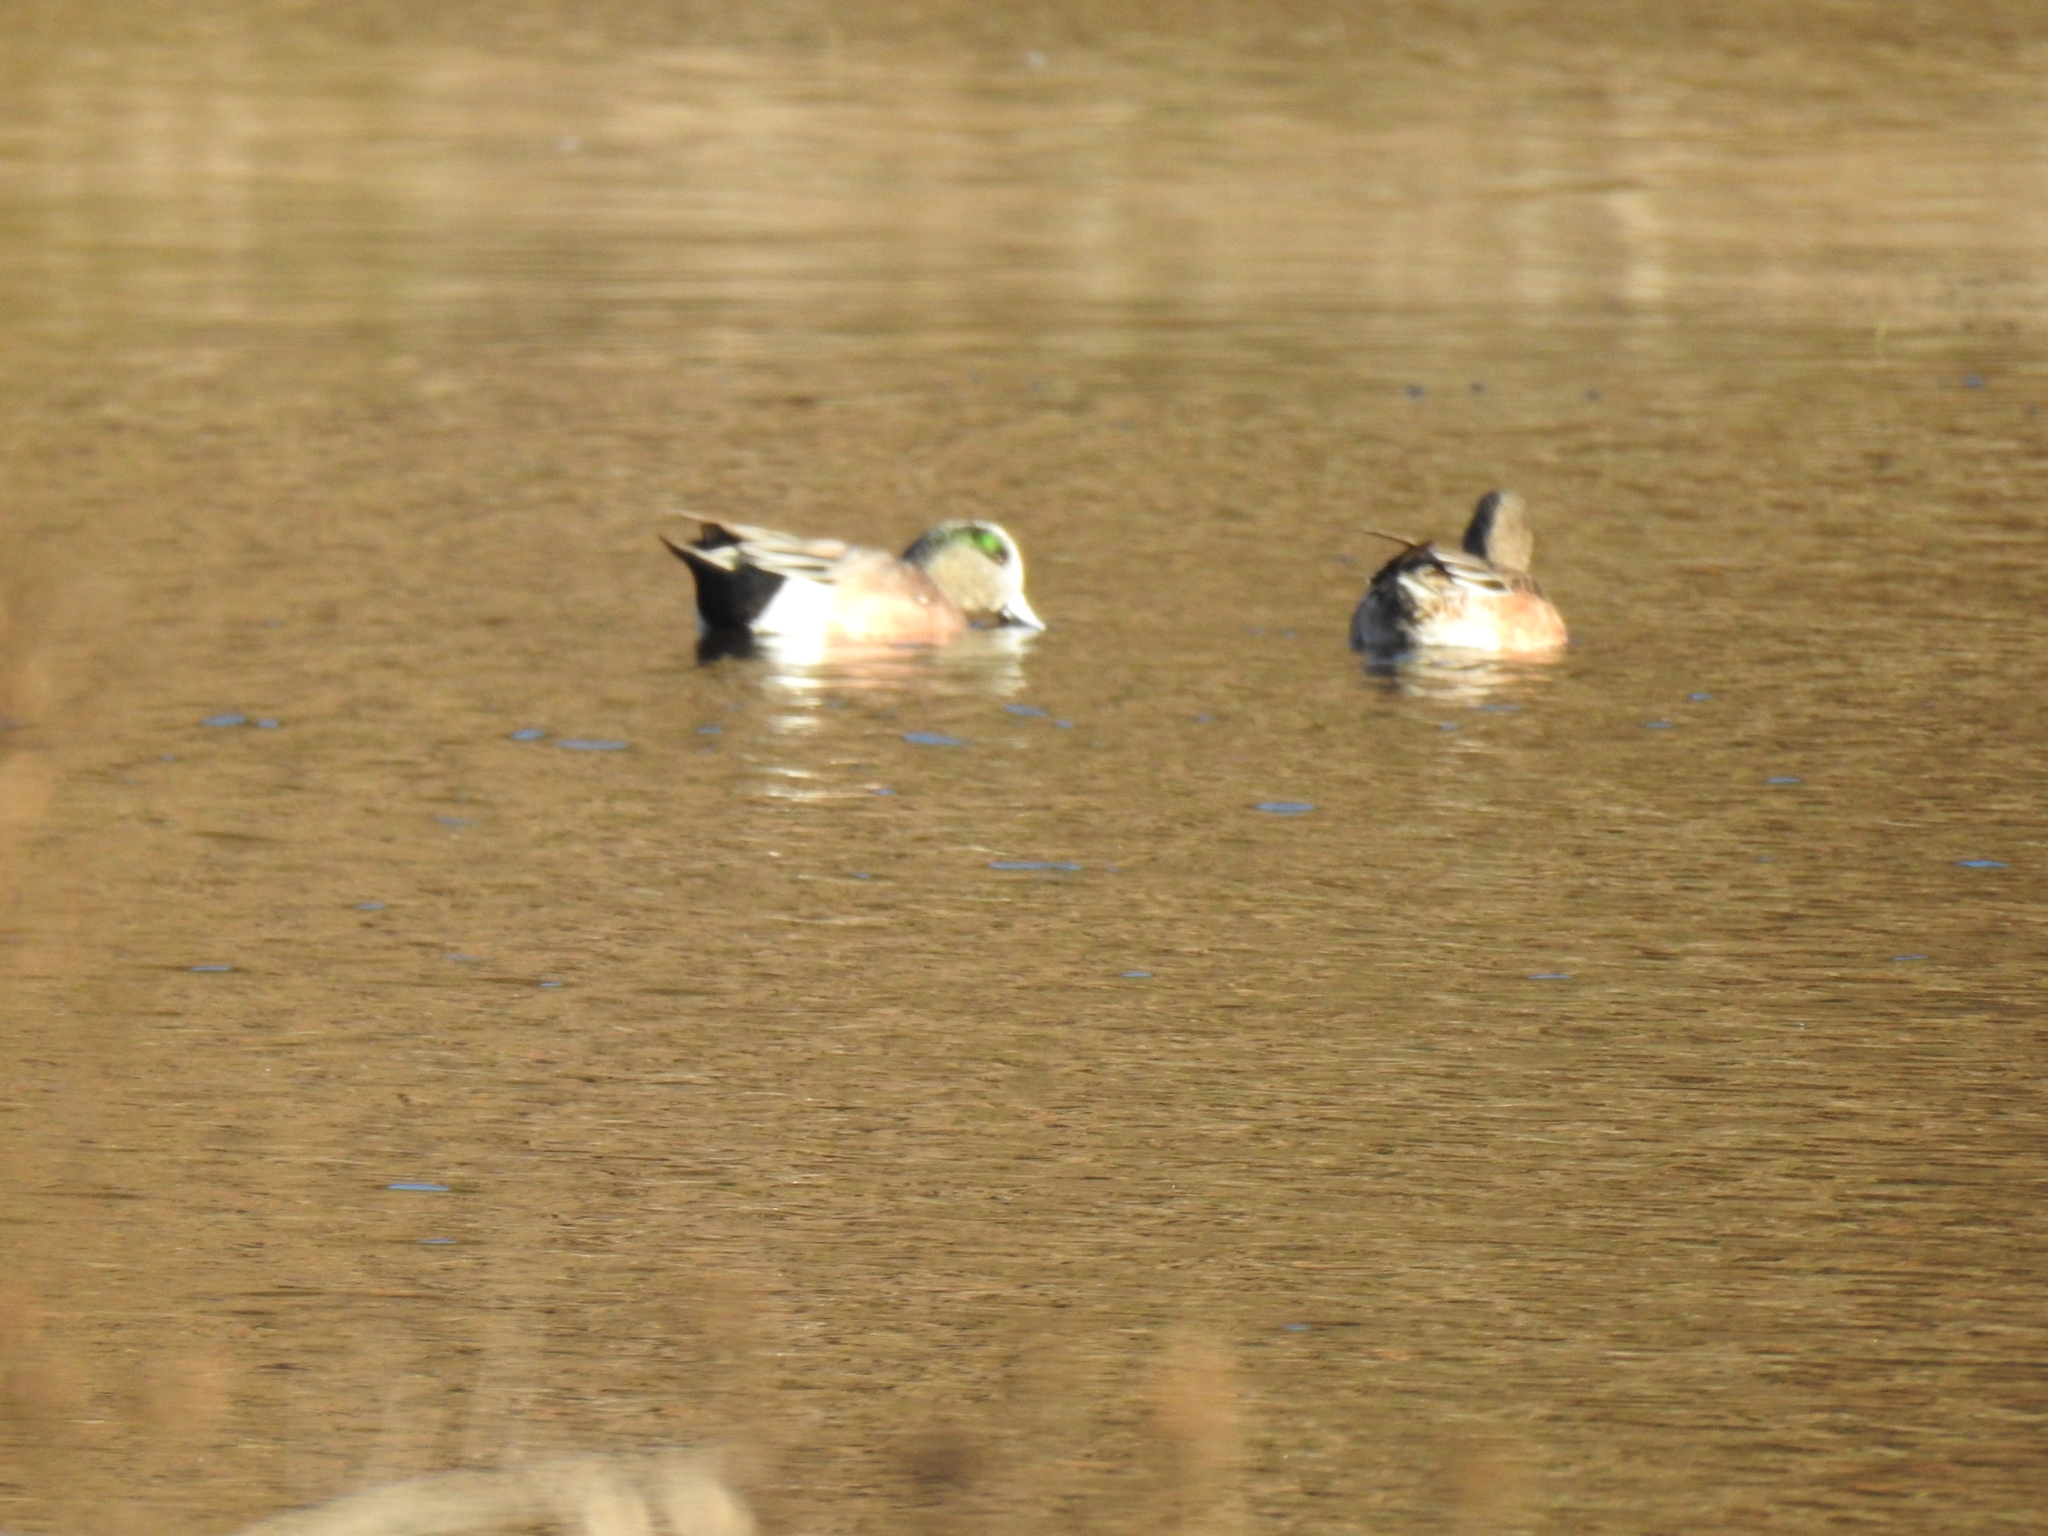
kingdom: Animalia
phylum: Chordata
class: Aves
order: Anseriformes
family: Anatidae
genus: Mareca
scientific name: Mareca americana
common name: American wigeon
